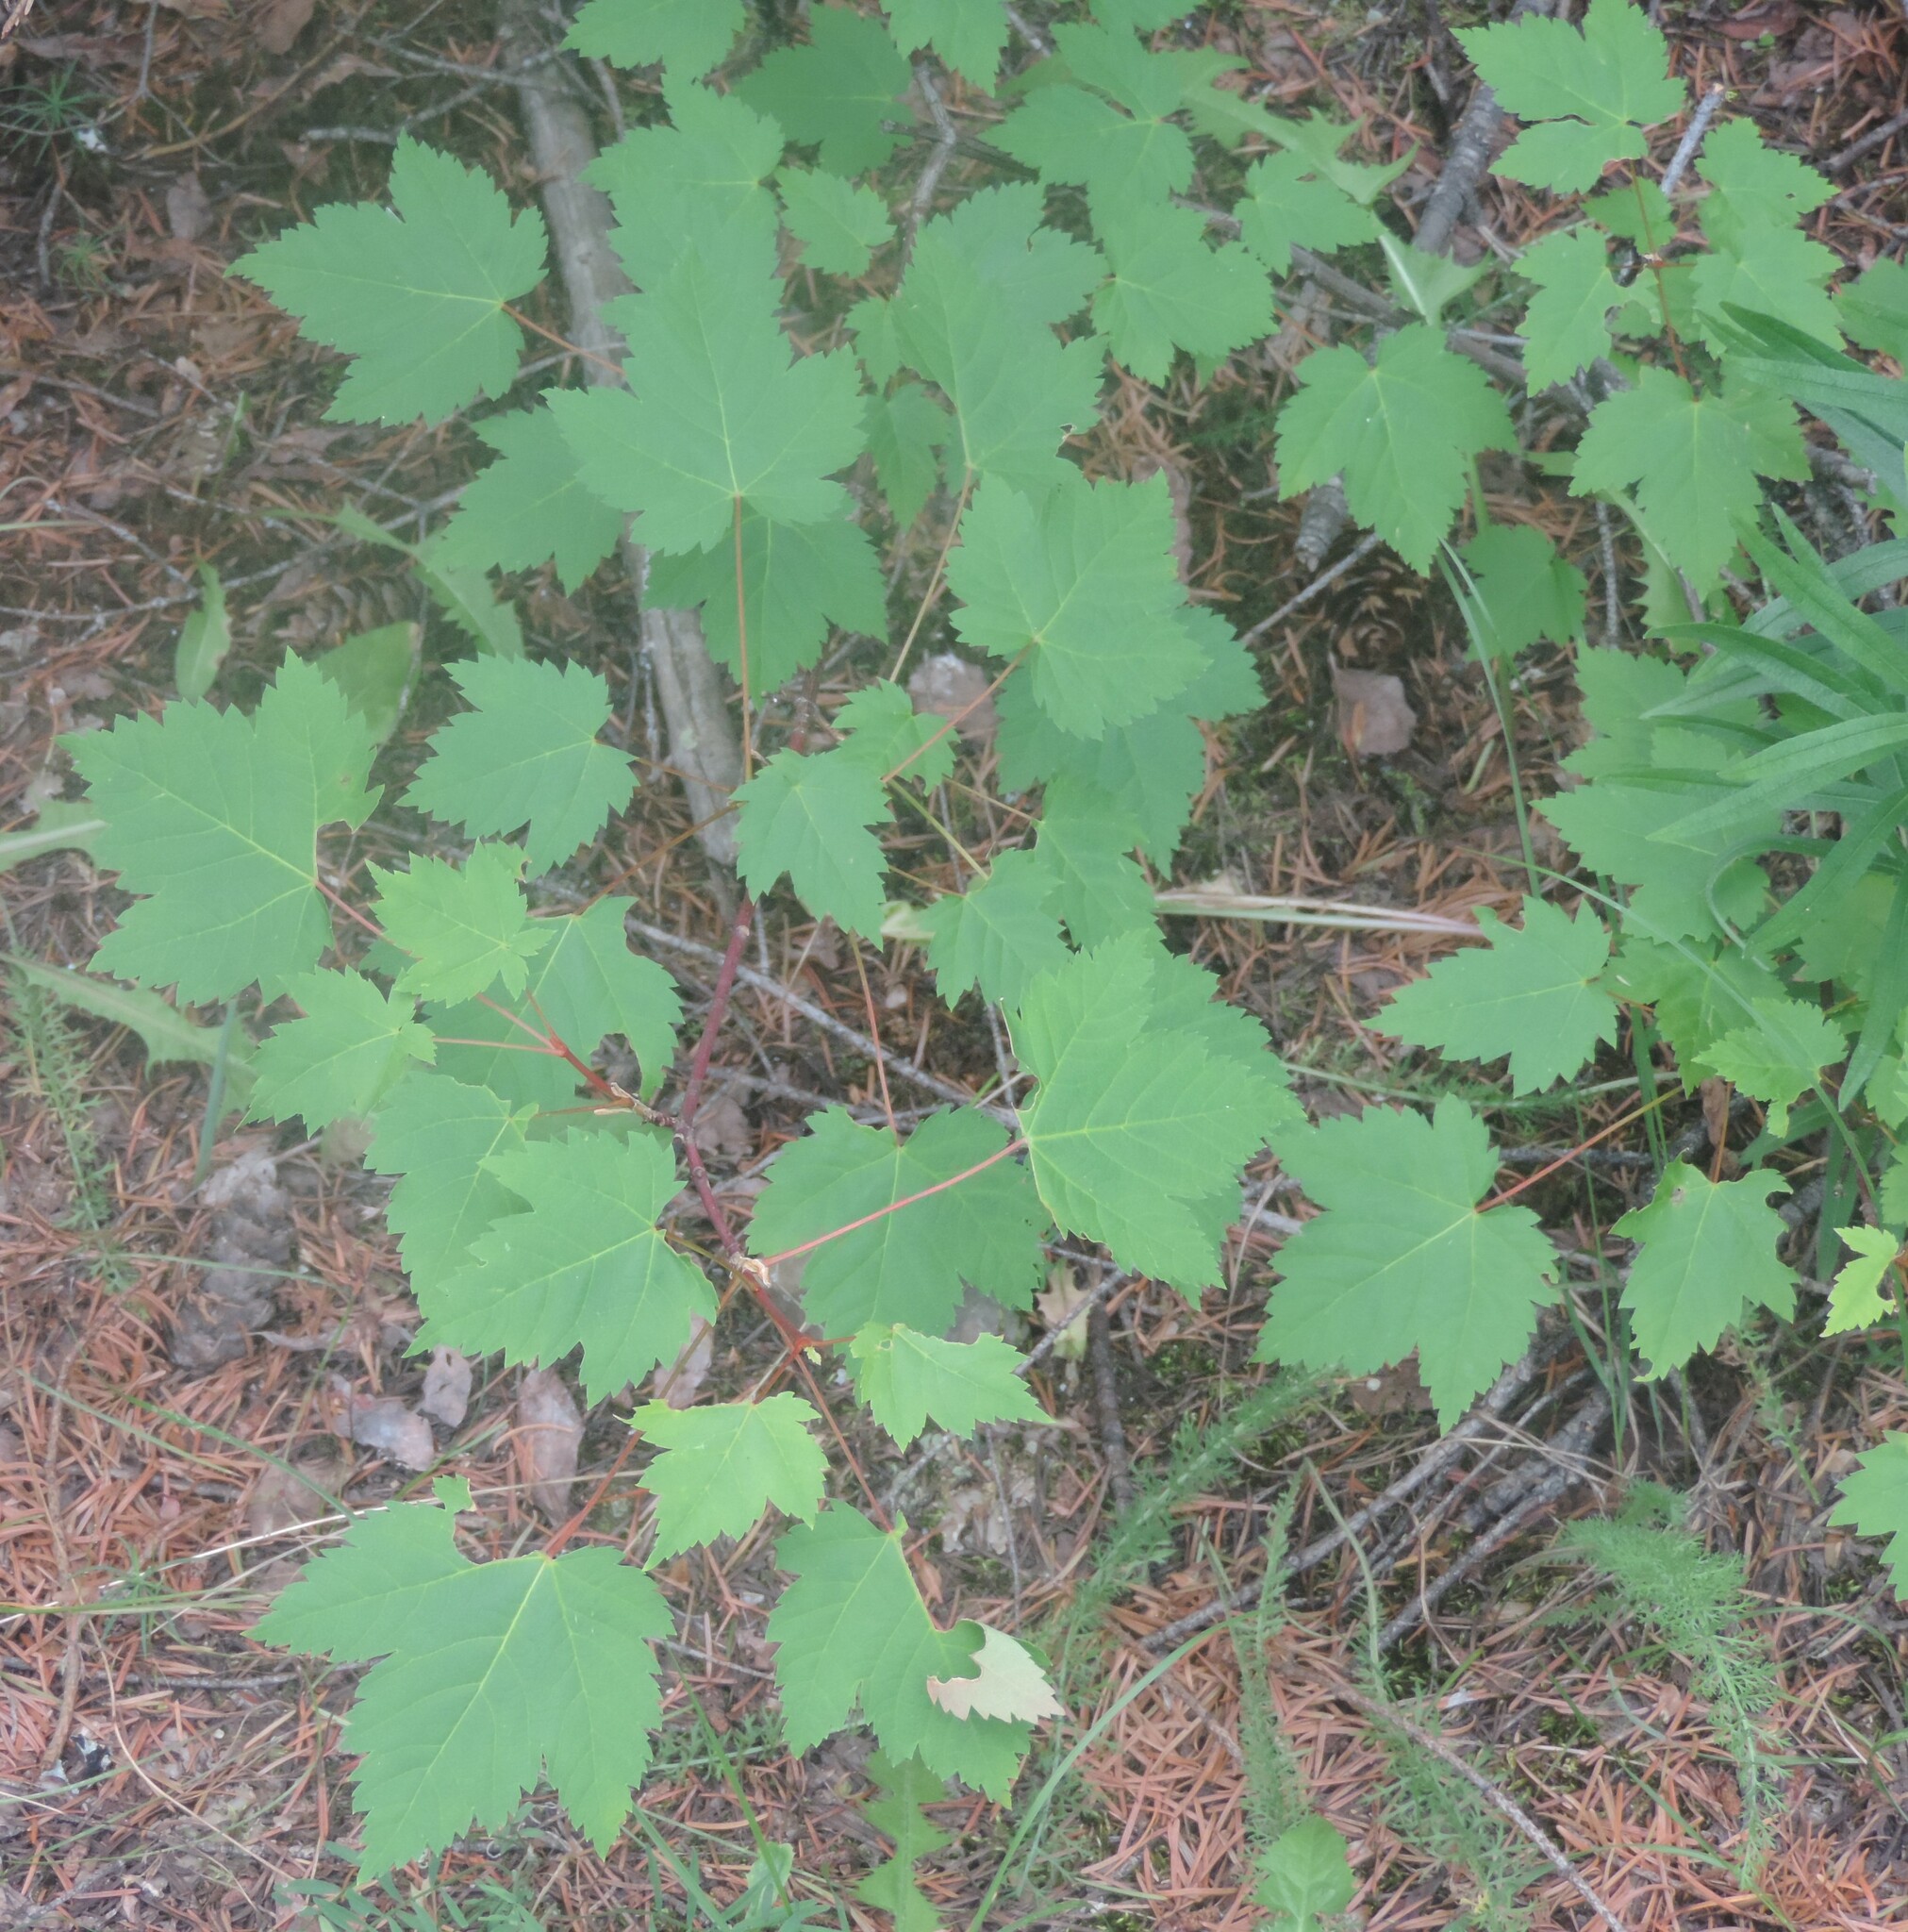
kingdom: Plantae
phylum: Tracheophyta
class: Magnoliopsida
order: Sapindales
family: Sapindaceae
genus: Acer
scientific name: Acer glabrum
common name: Rocky mountain maple
